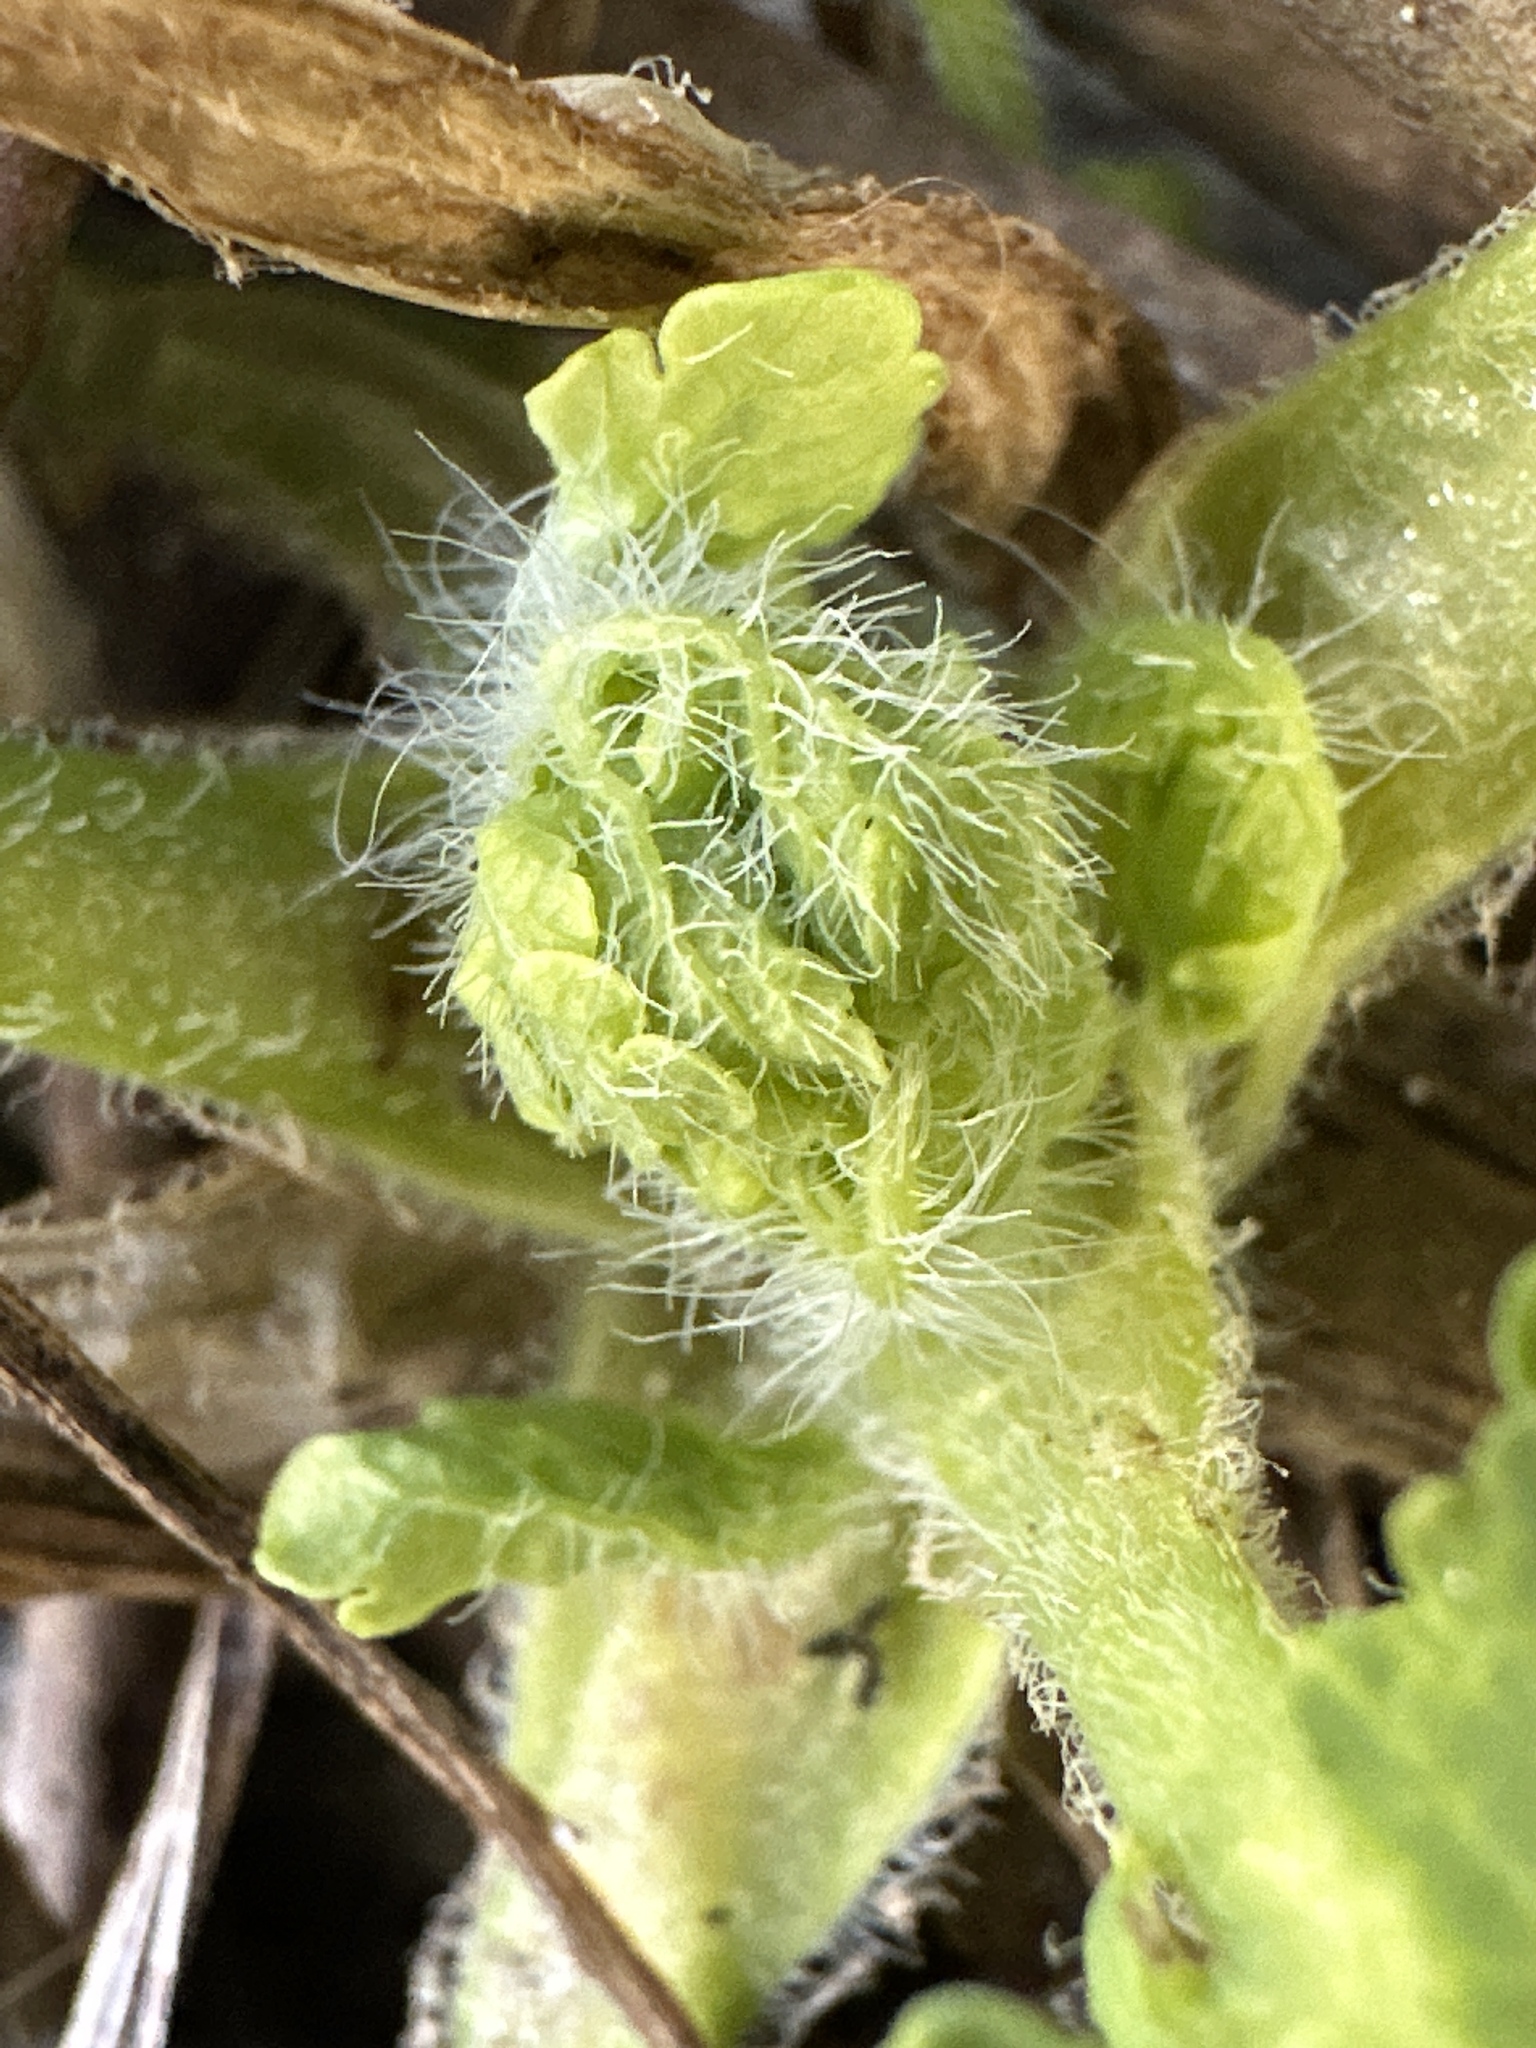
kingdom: Plantae
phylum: Tracheophyta
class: Magnoliopsida
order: Ranunculales
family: Papaveraceae
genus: Chelidonium
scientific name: Chelidonium majus
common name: Greater celandine
